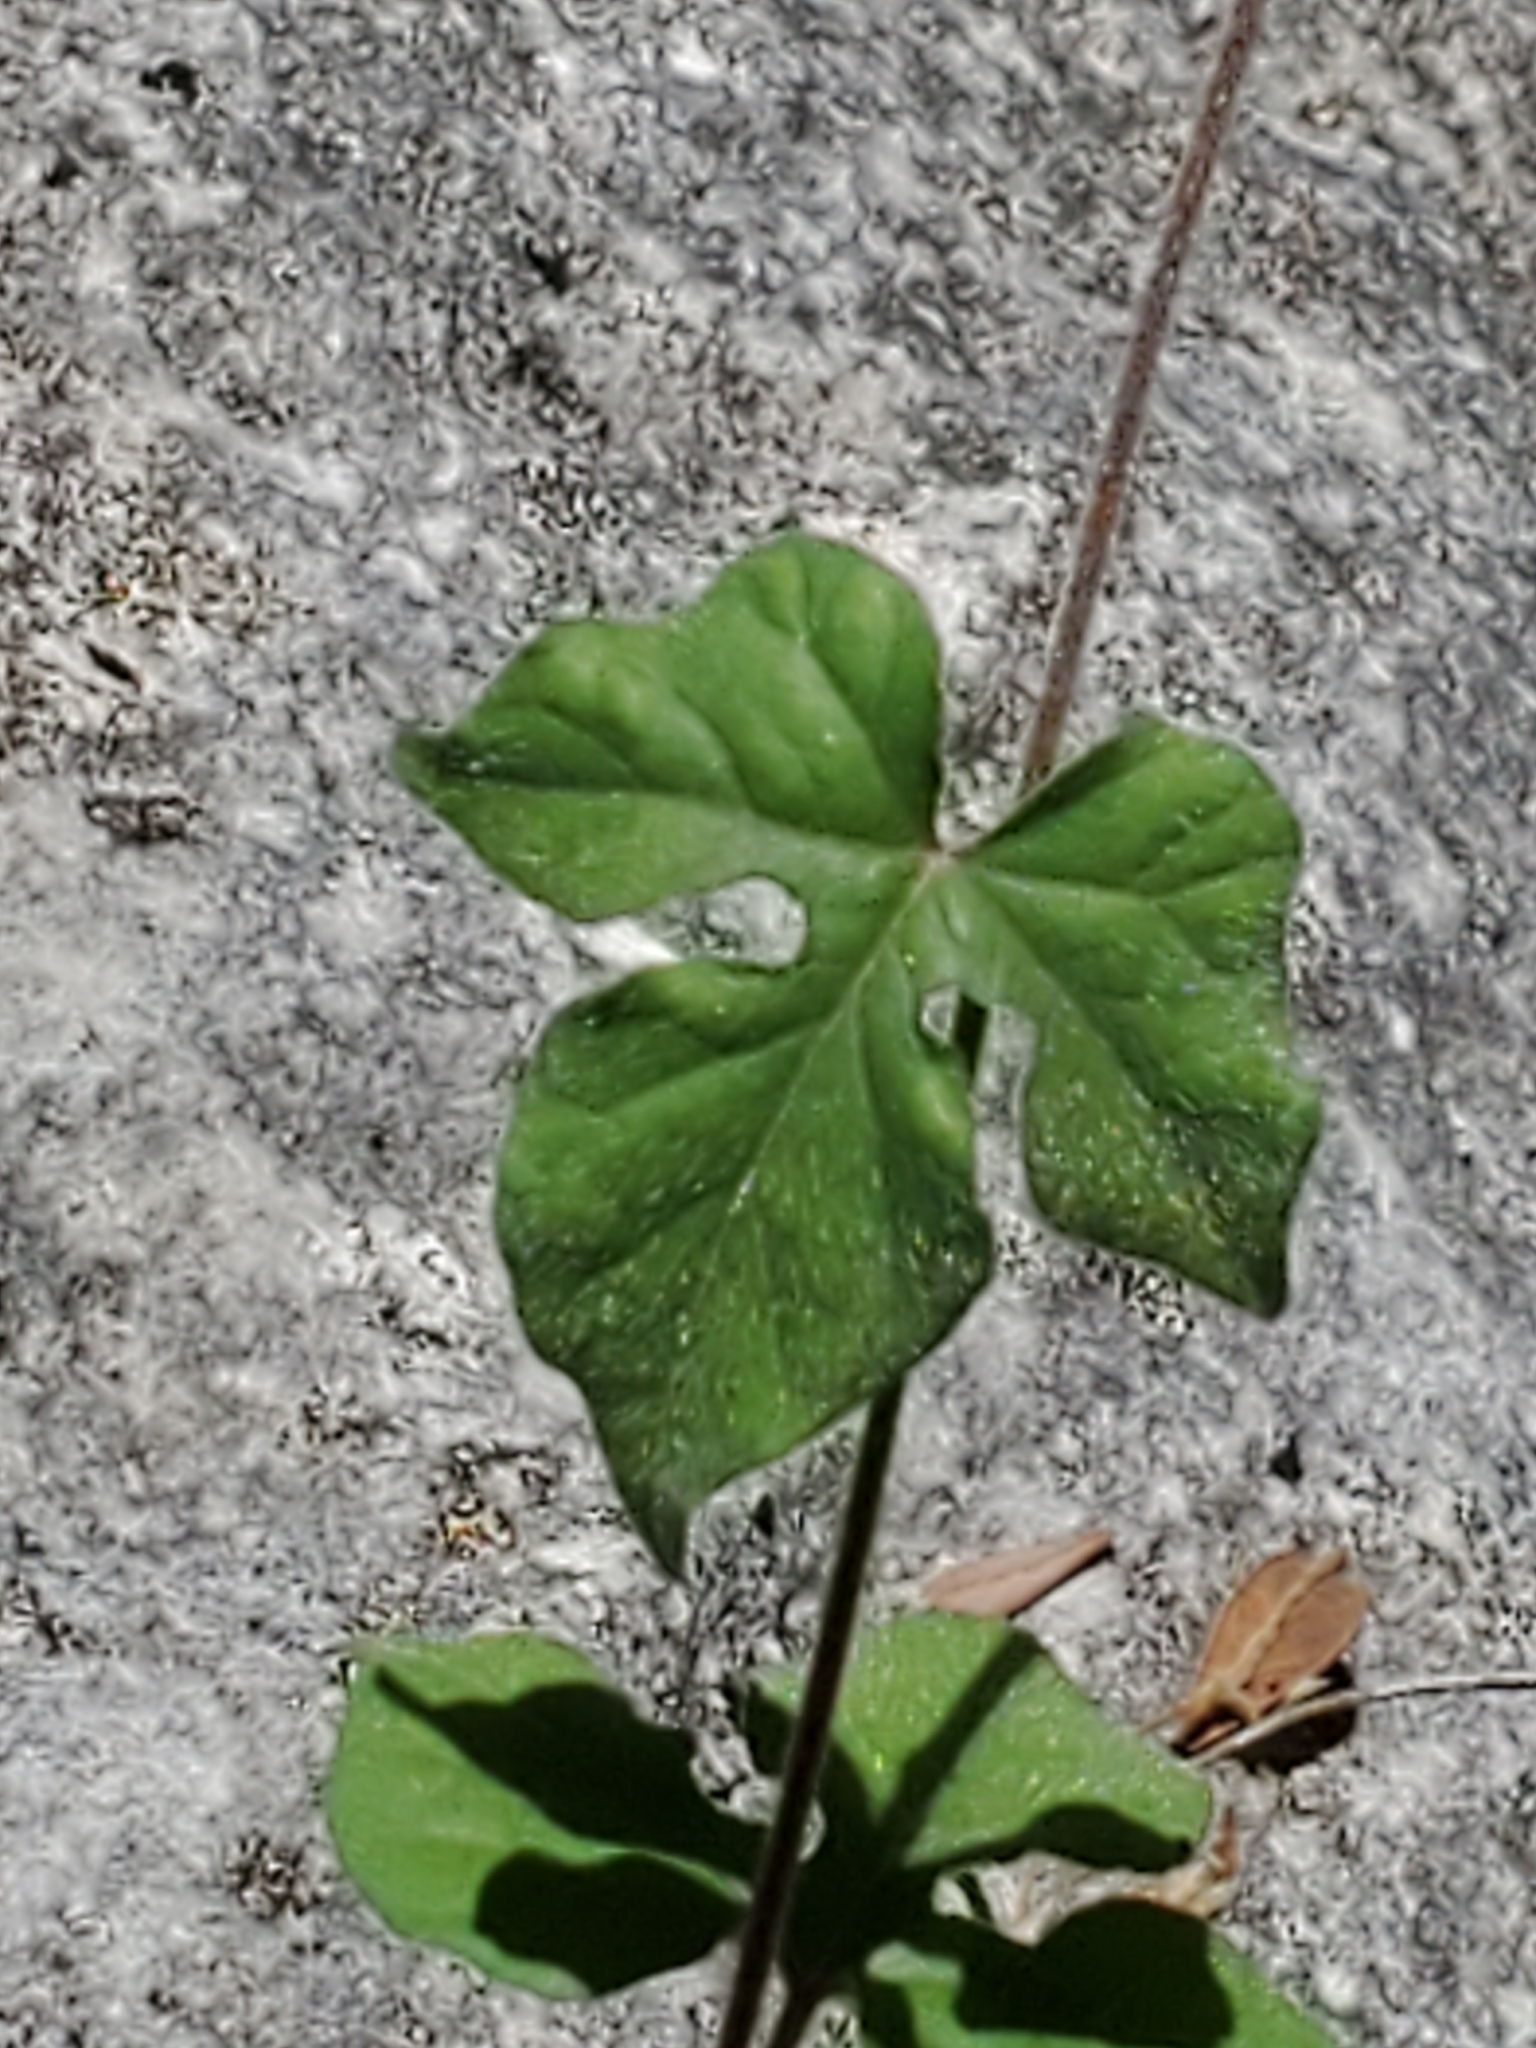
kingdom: Plantae
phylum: Tracheophyta
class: Magnoliopsida
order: Solanales
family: Convolvulaceae
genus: Ipomoea
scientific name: Ipomoea lindheimeri
